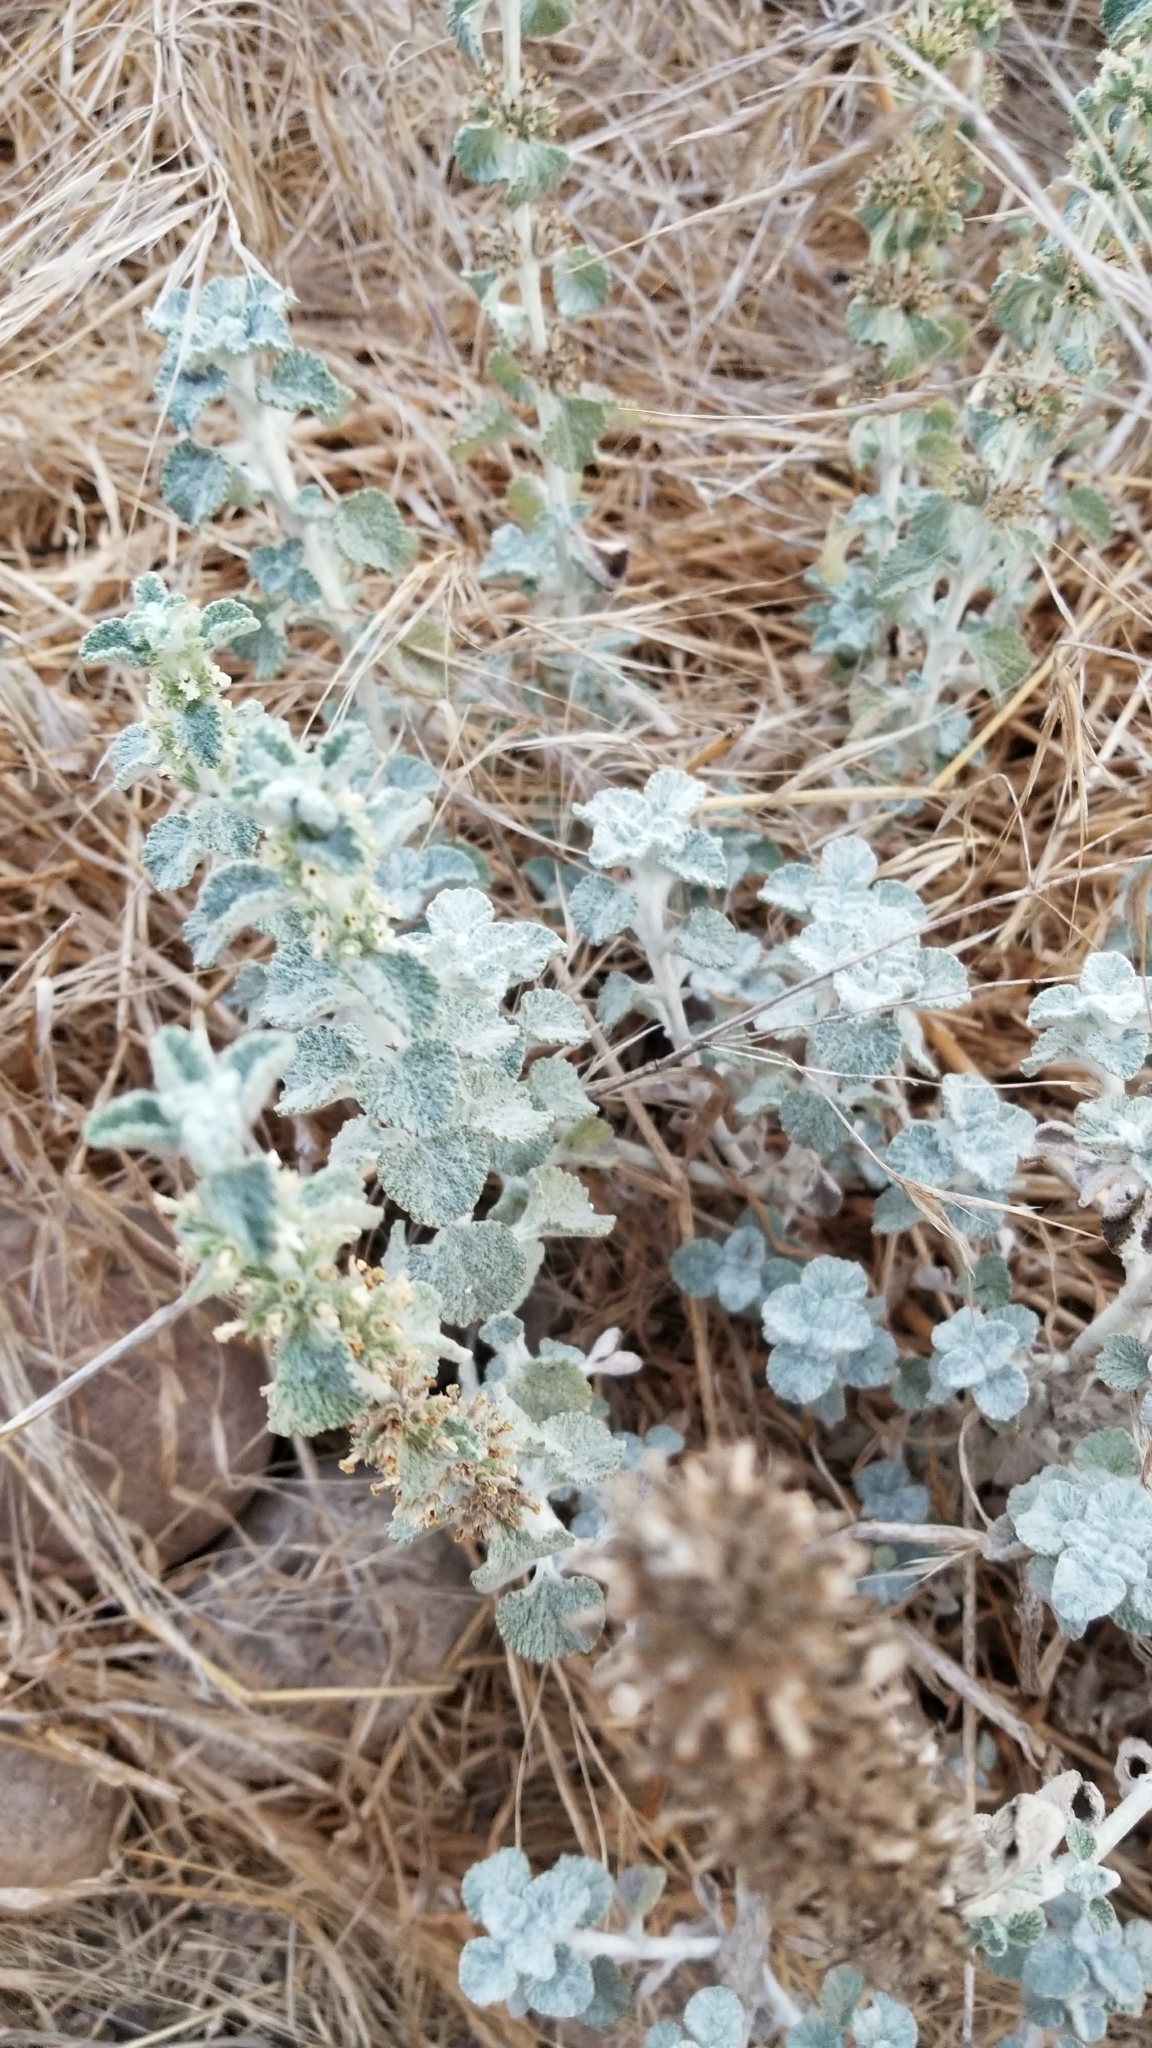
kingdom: Plantae
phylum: Tracheophyta
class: Magnoliopsida
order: Lamiales
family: Lamiaceae
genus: Marrubium
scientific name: Marrubium vulgare
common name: Horehound
